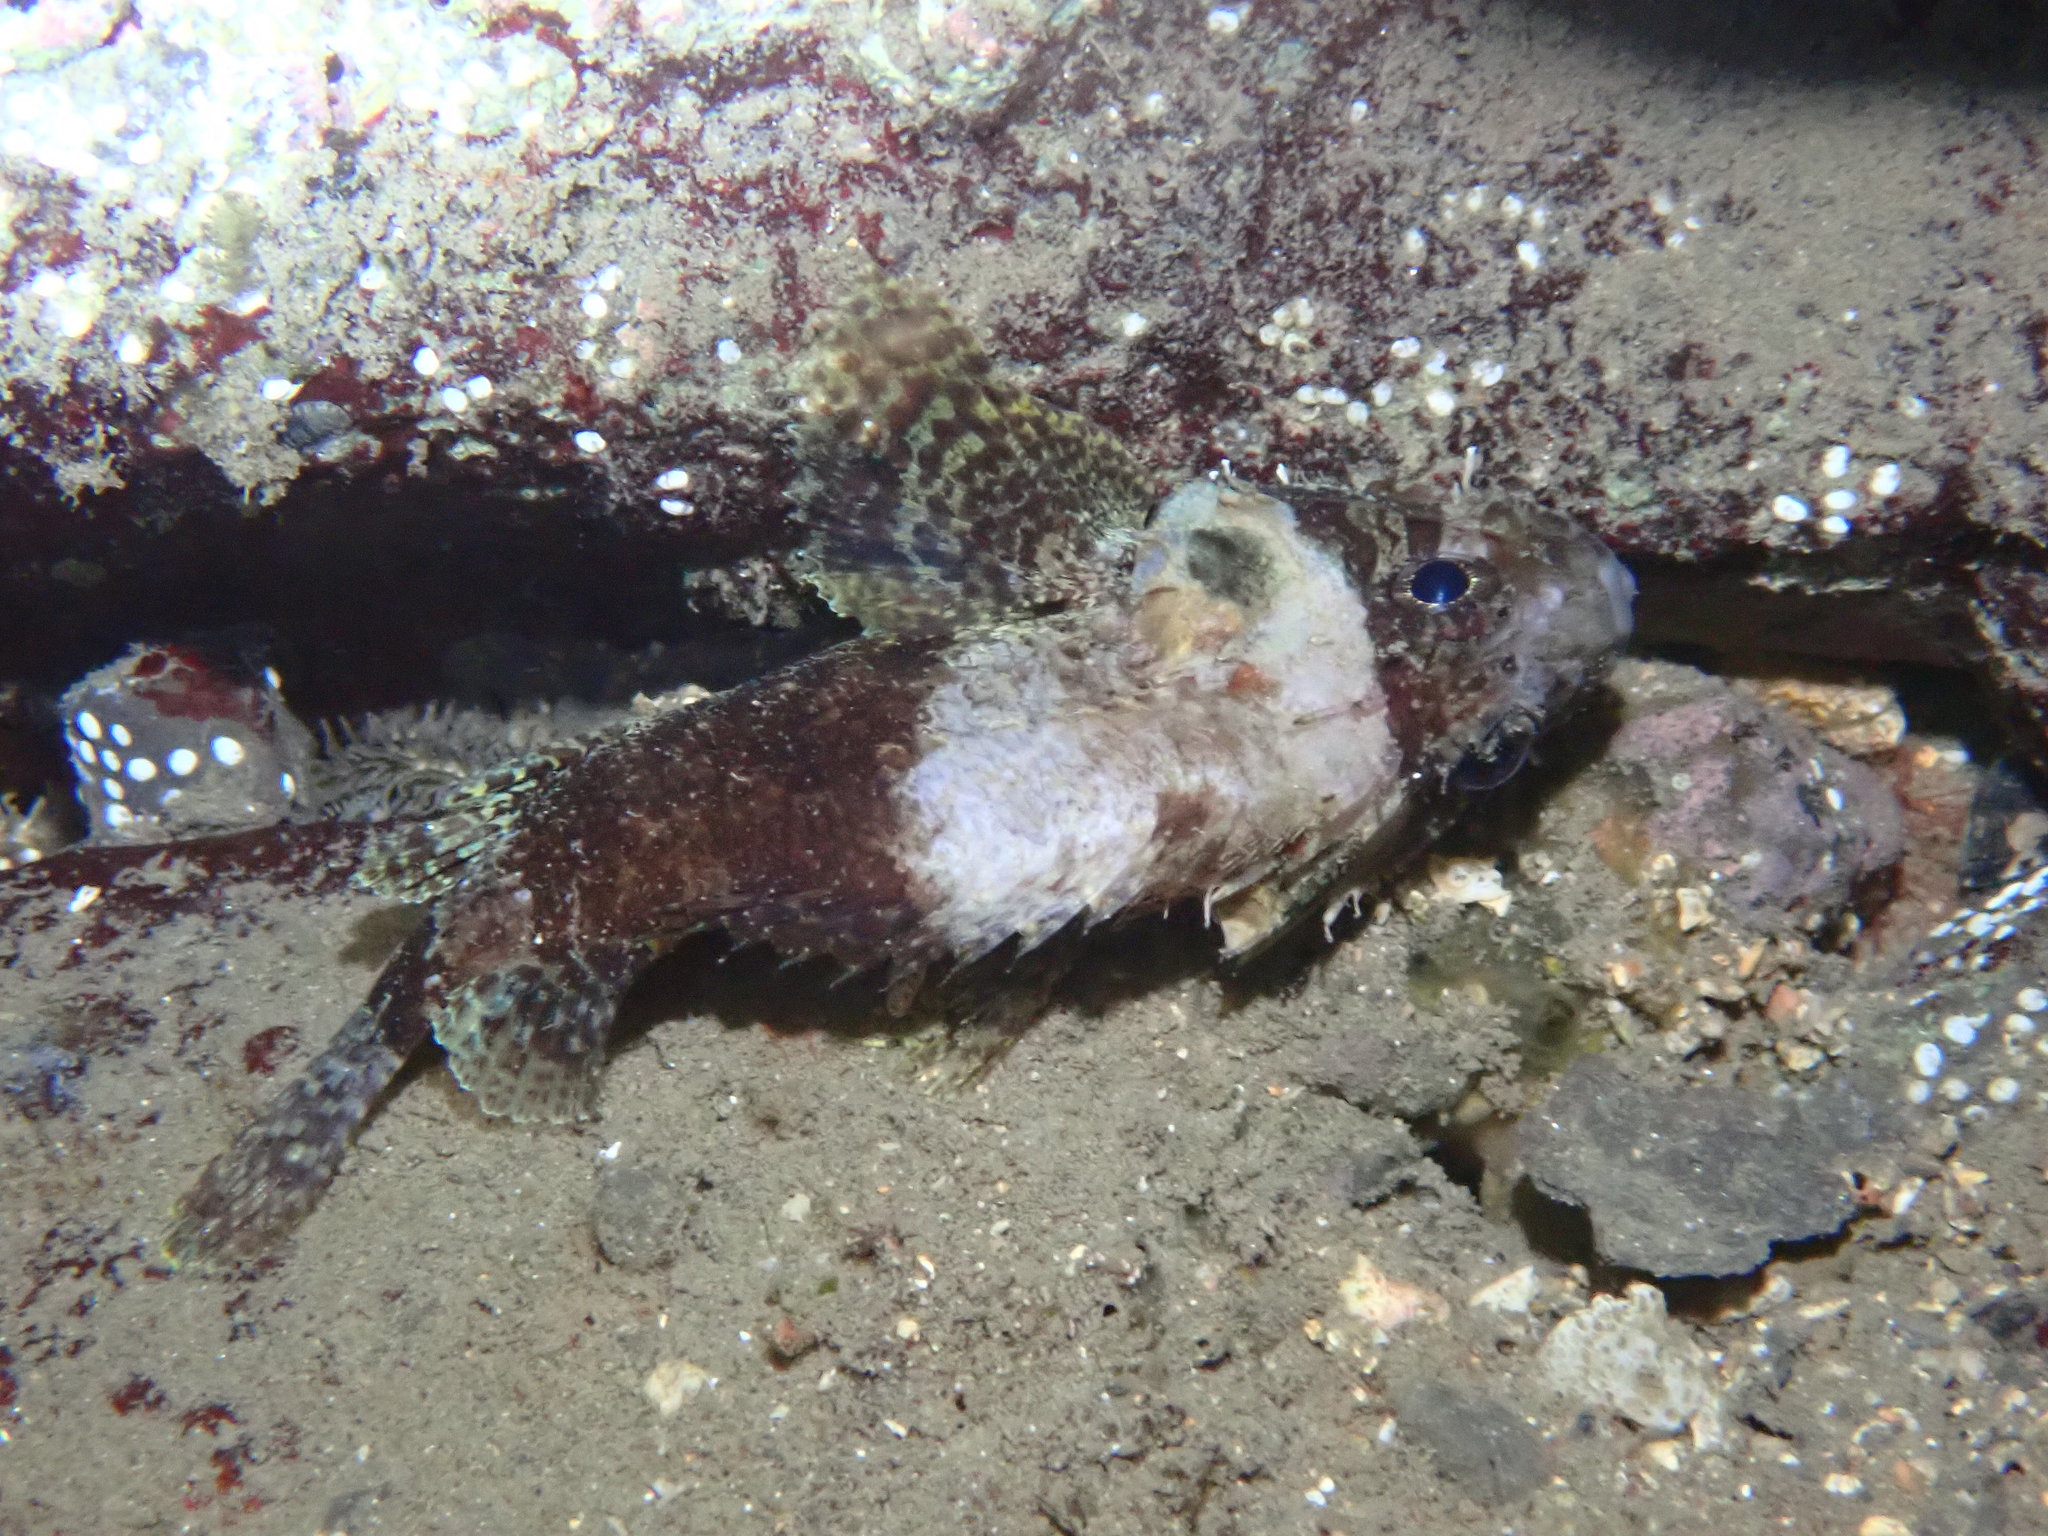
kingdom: Animalia
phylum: Chordata
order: Scorpaeniformes
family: Scorpaenidae
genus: Scorpaenodes
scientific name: Scorpaenodes guamensis
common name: Guam scorpionfish
